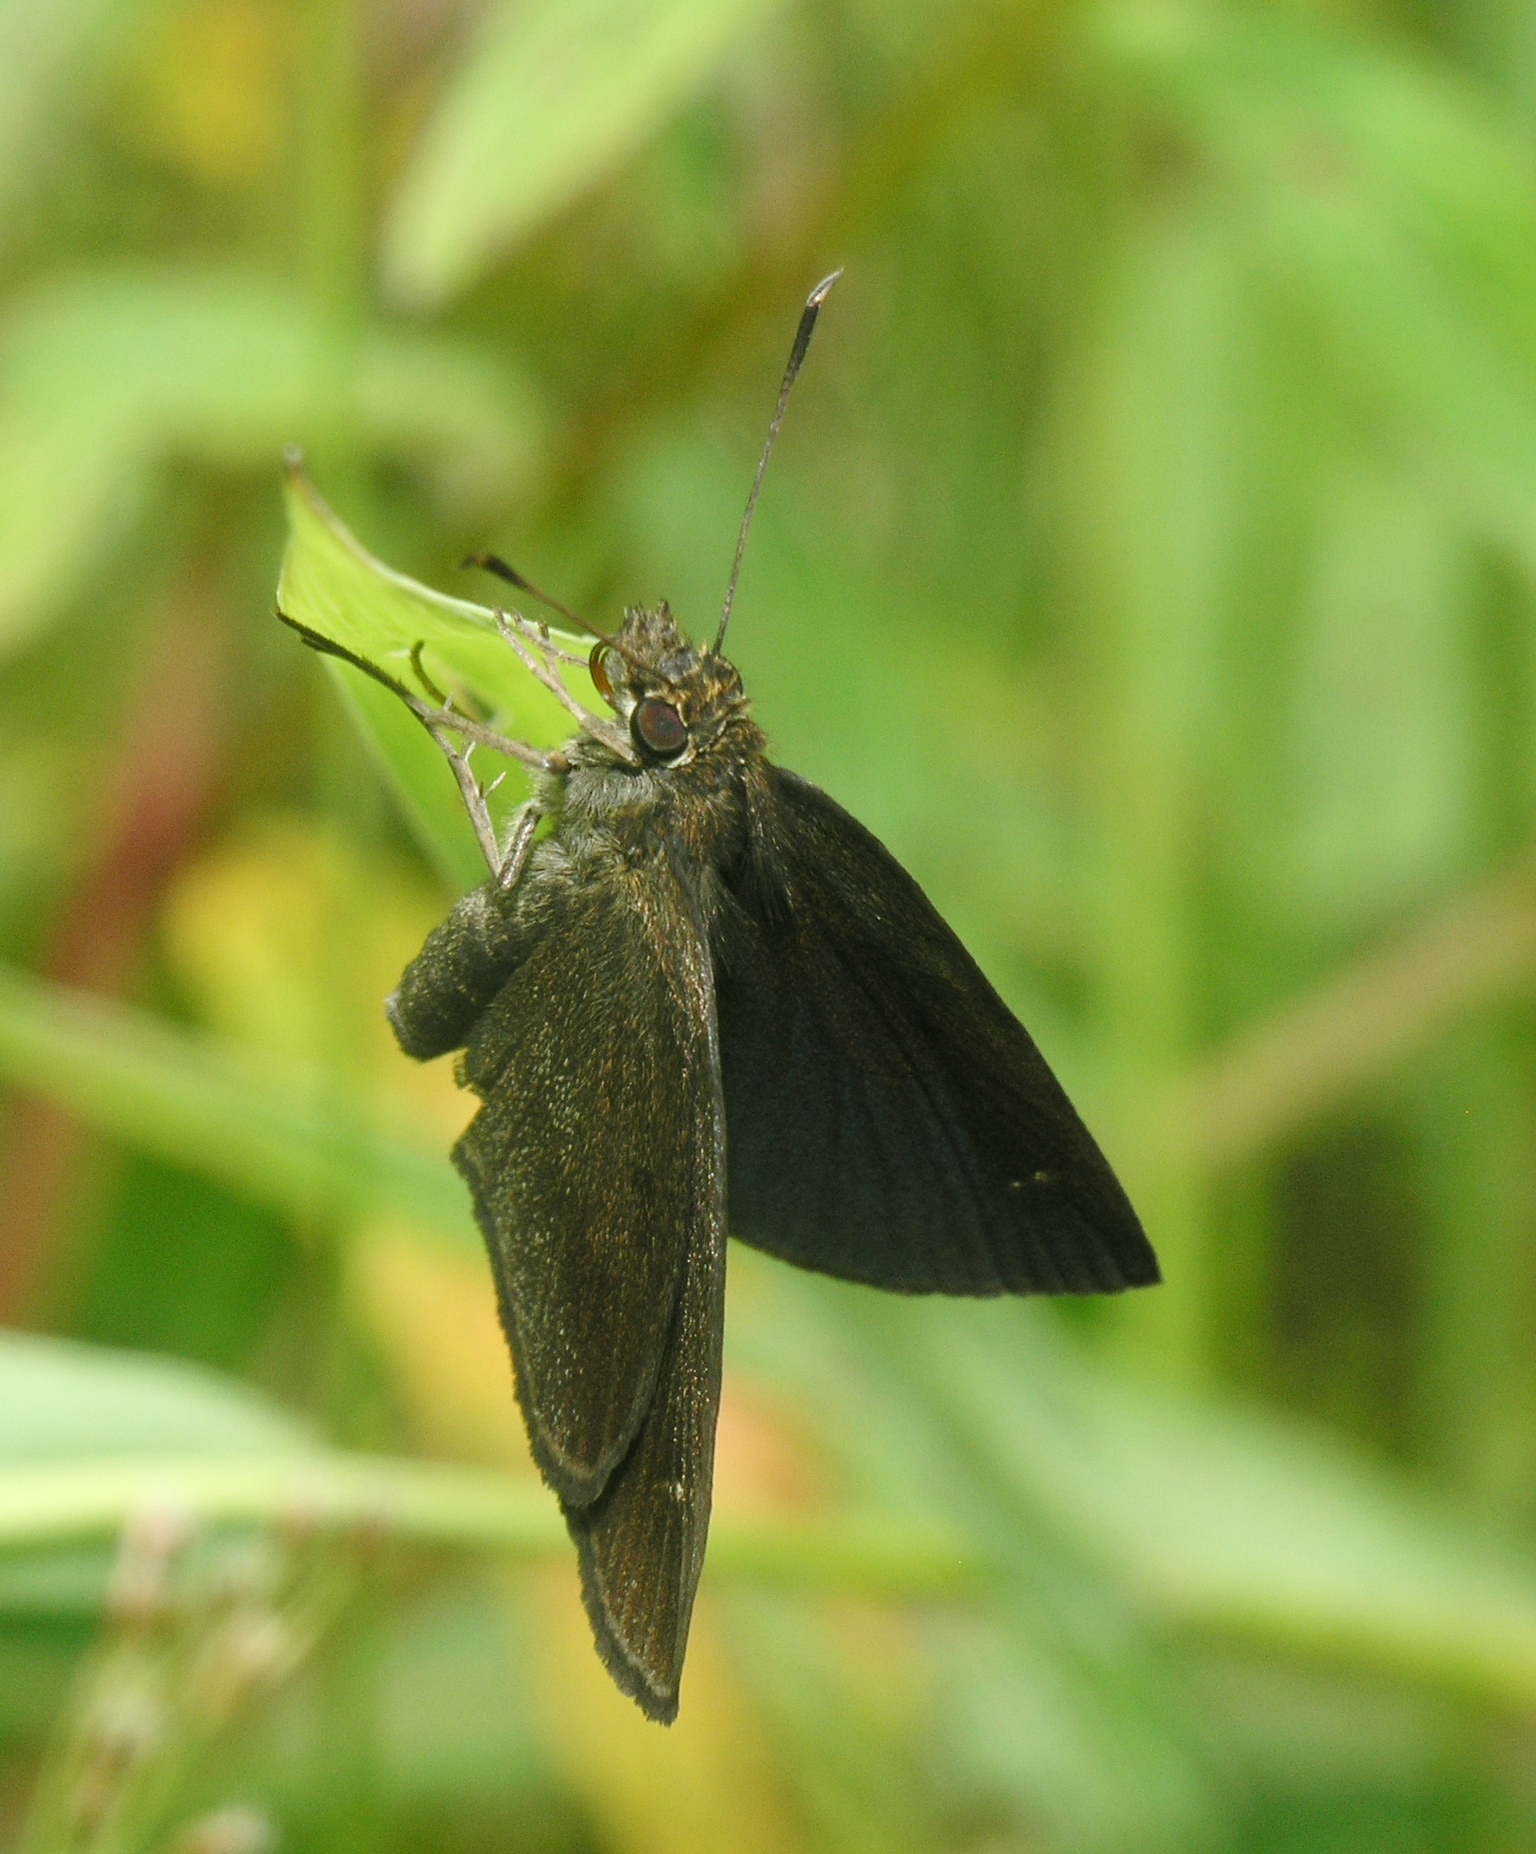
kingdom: Animalia
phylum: Arthropoda
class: Insecta
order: Lepidoptera
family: Hesperiidae
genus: Astictopterus
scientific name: Astictopterus jama
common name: Forest hopper
